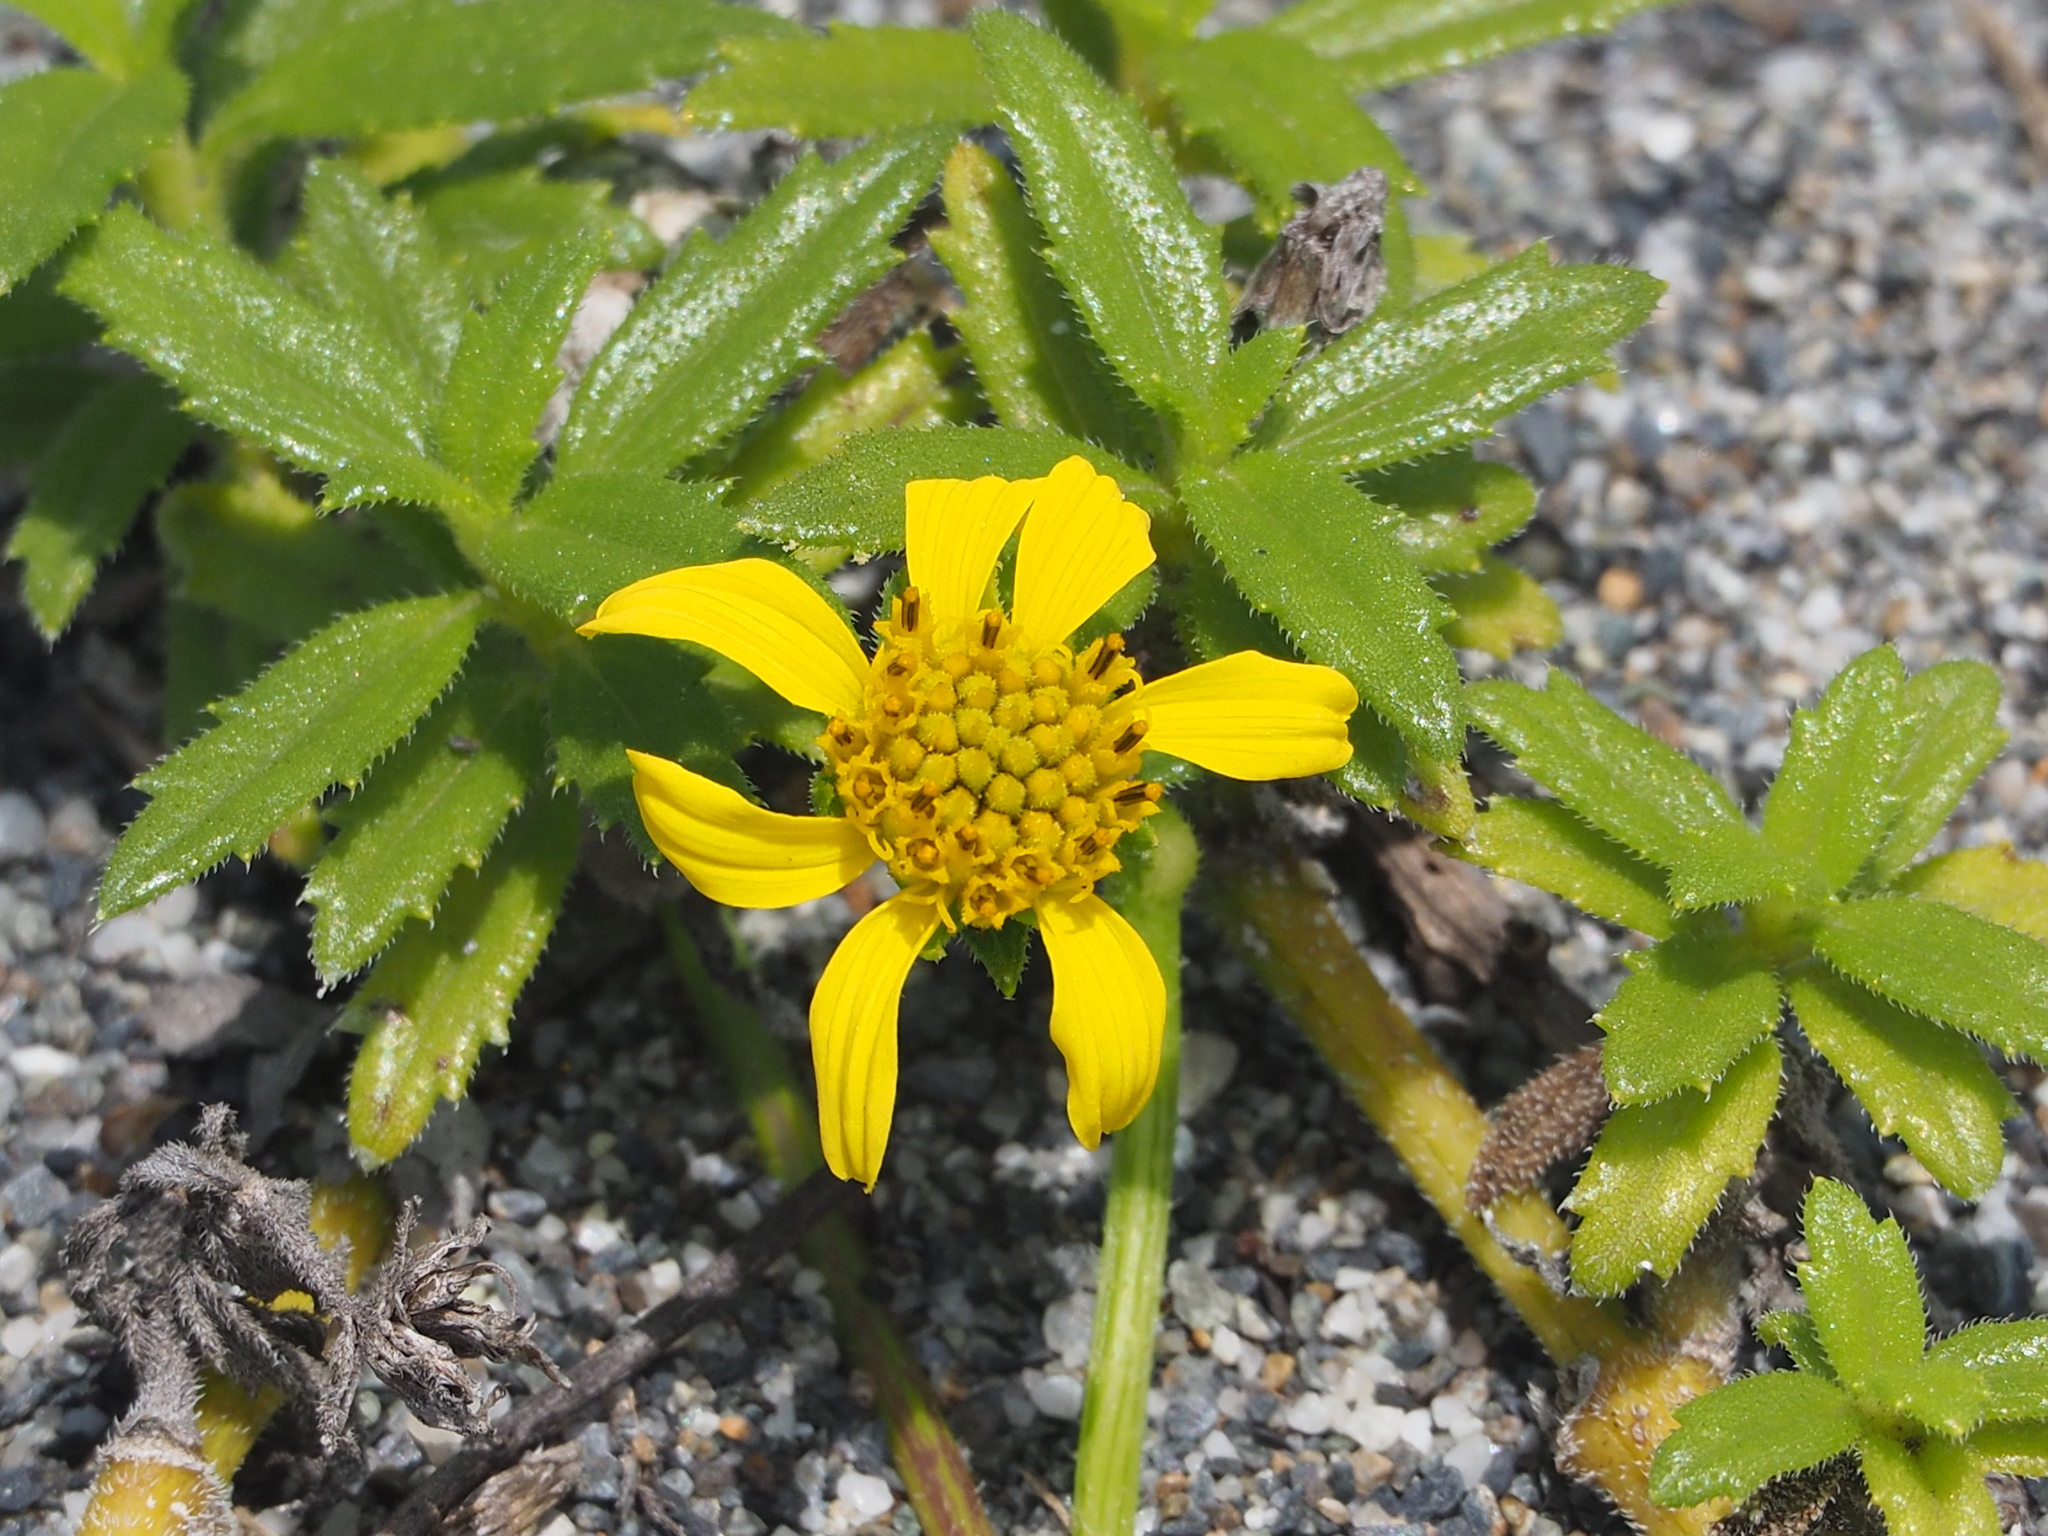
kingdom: Plantae
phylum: Tracheophyta
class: Magnoliopsida
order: Asterales
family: Asteraceae
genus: Melanthera
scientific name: Melanthera prostrata
